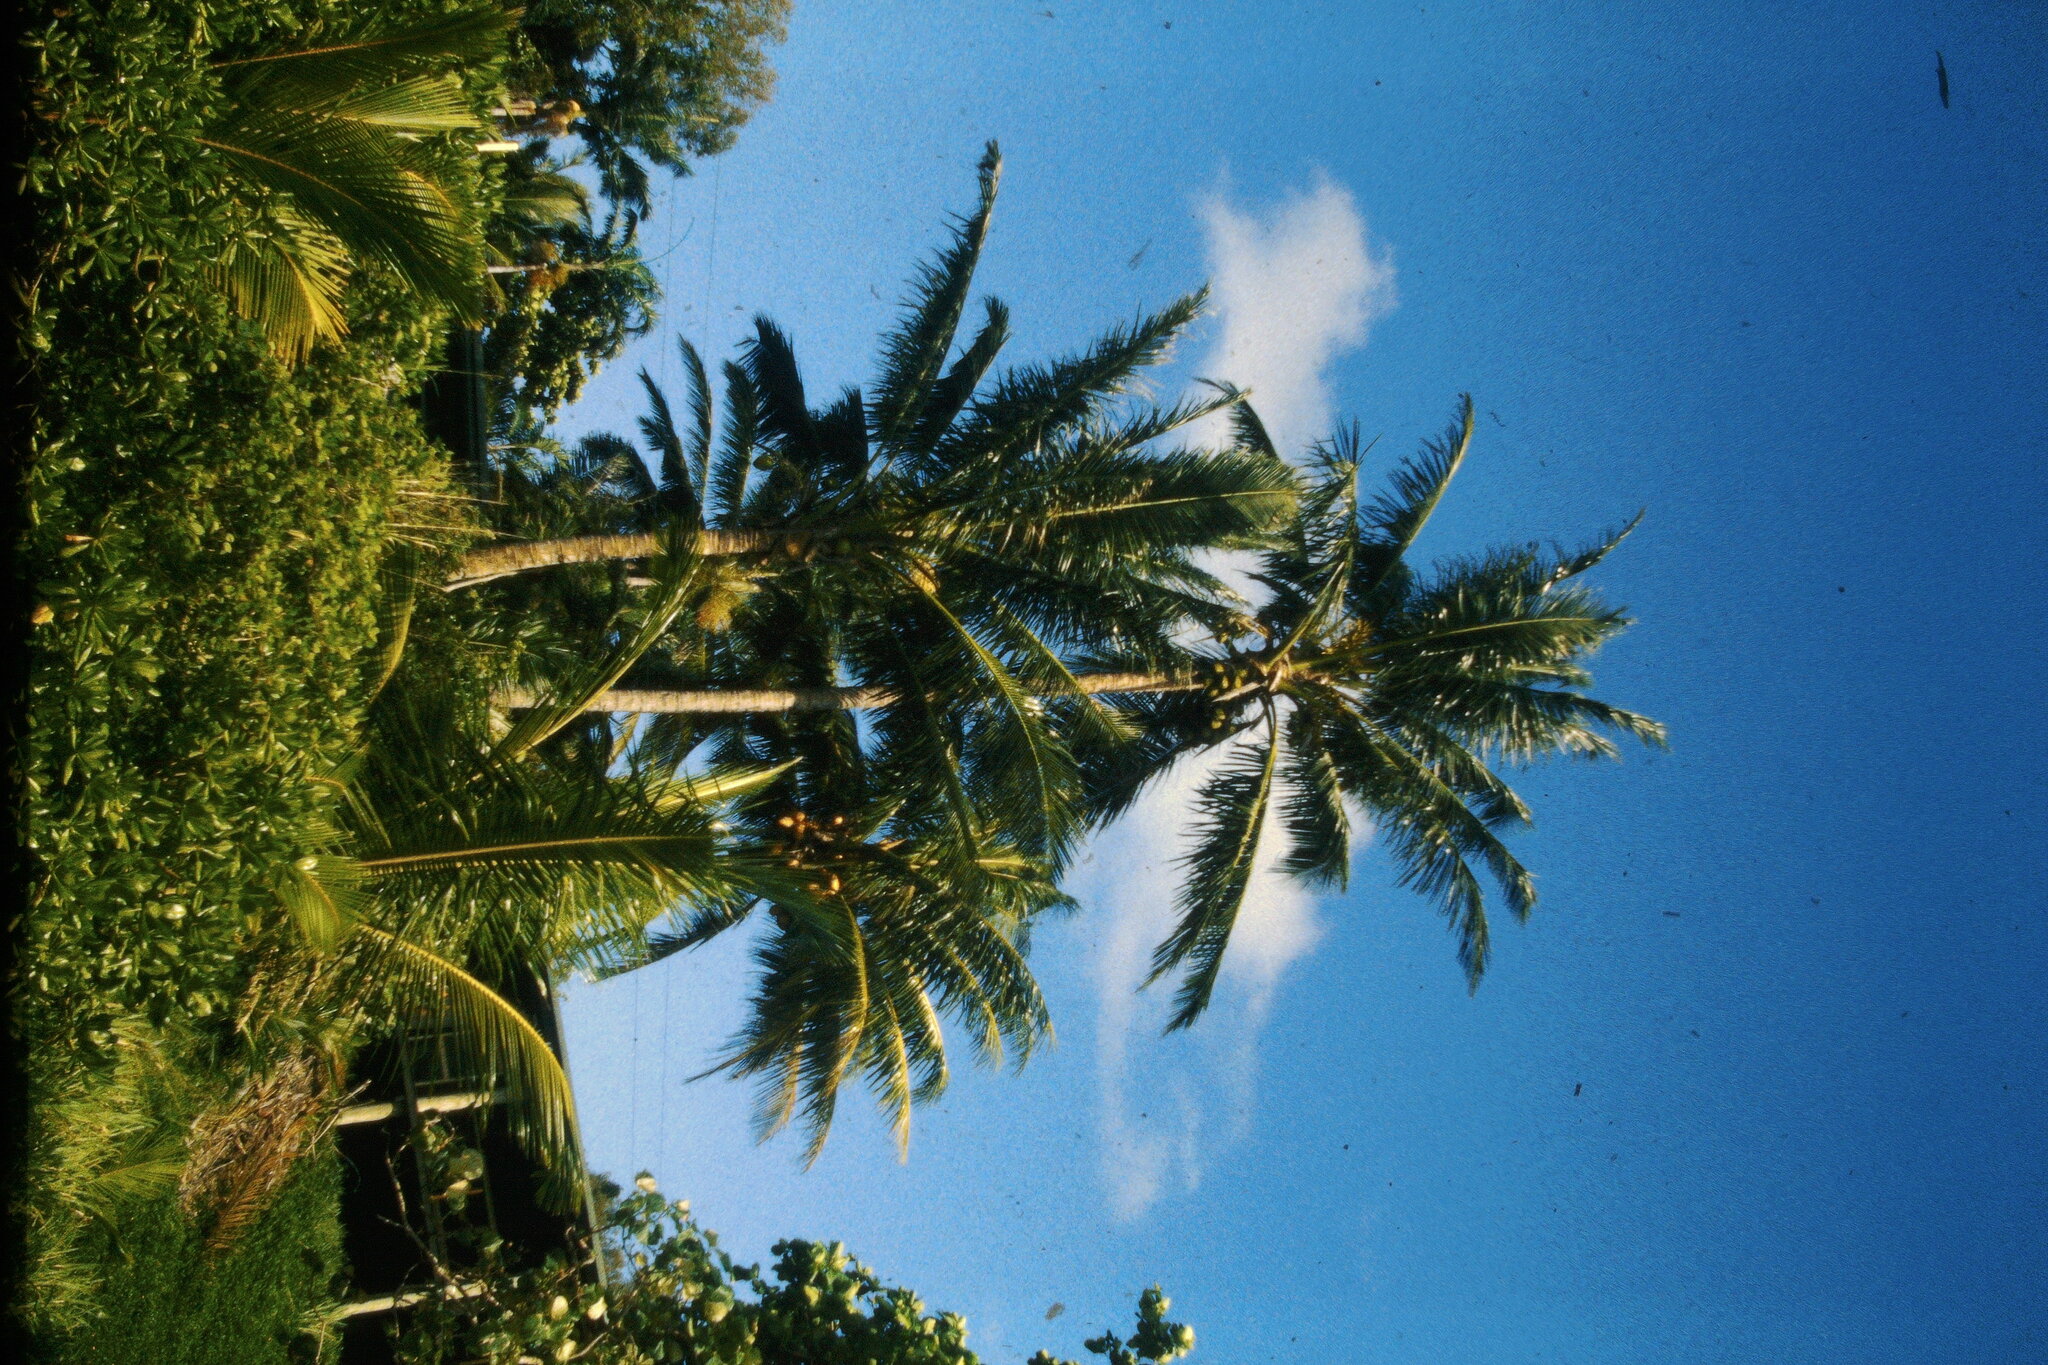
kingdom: Plantae
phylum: Tracheophyta
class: Liliopsida
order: Arecales
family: Arecaceae
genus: Cocos
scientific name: Cocos nucifera
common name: Coconut palm
